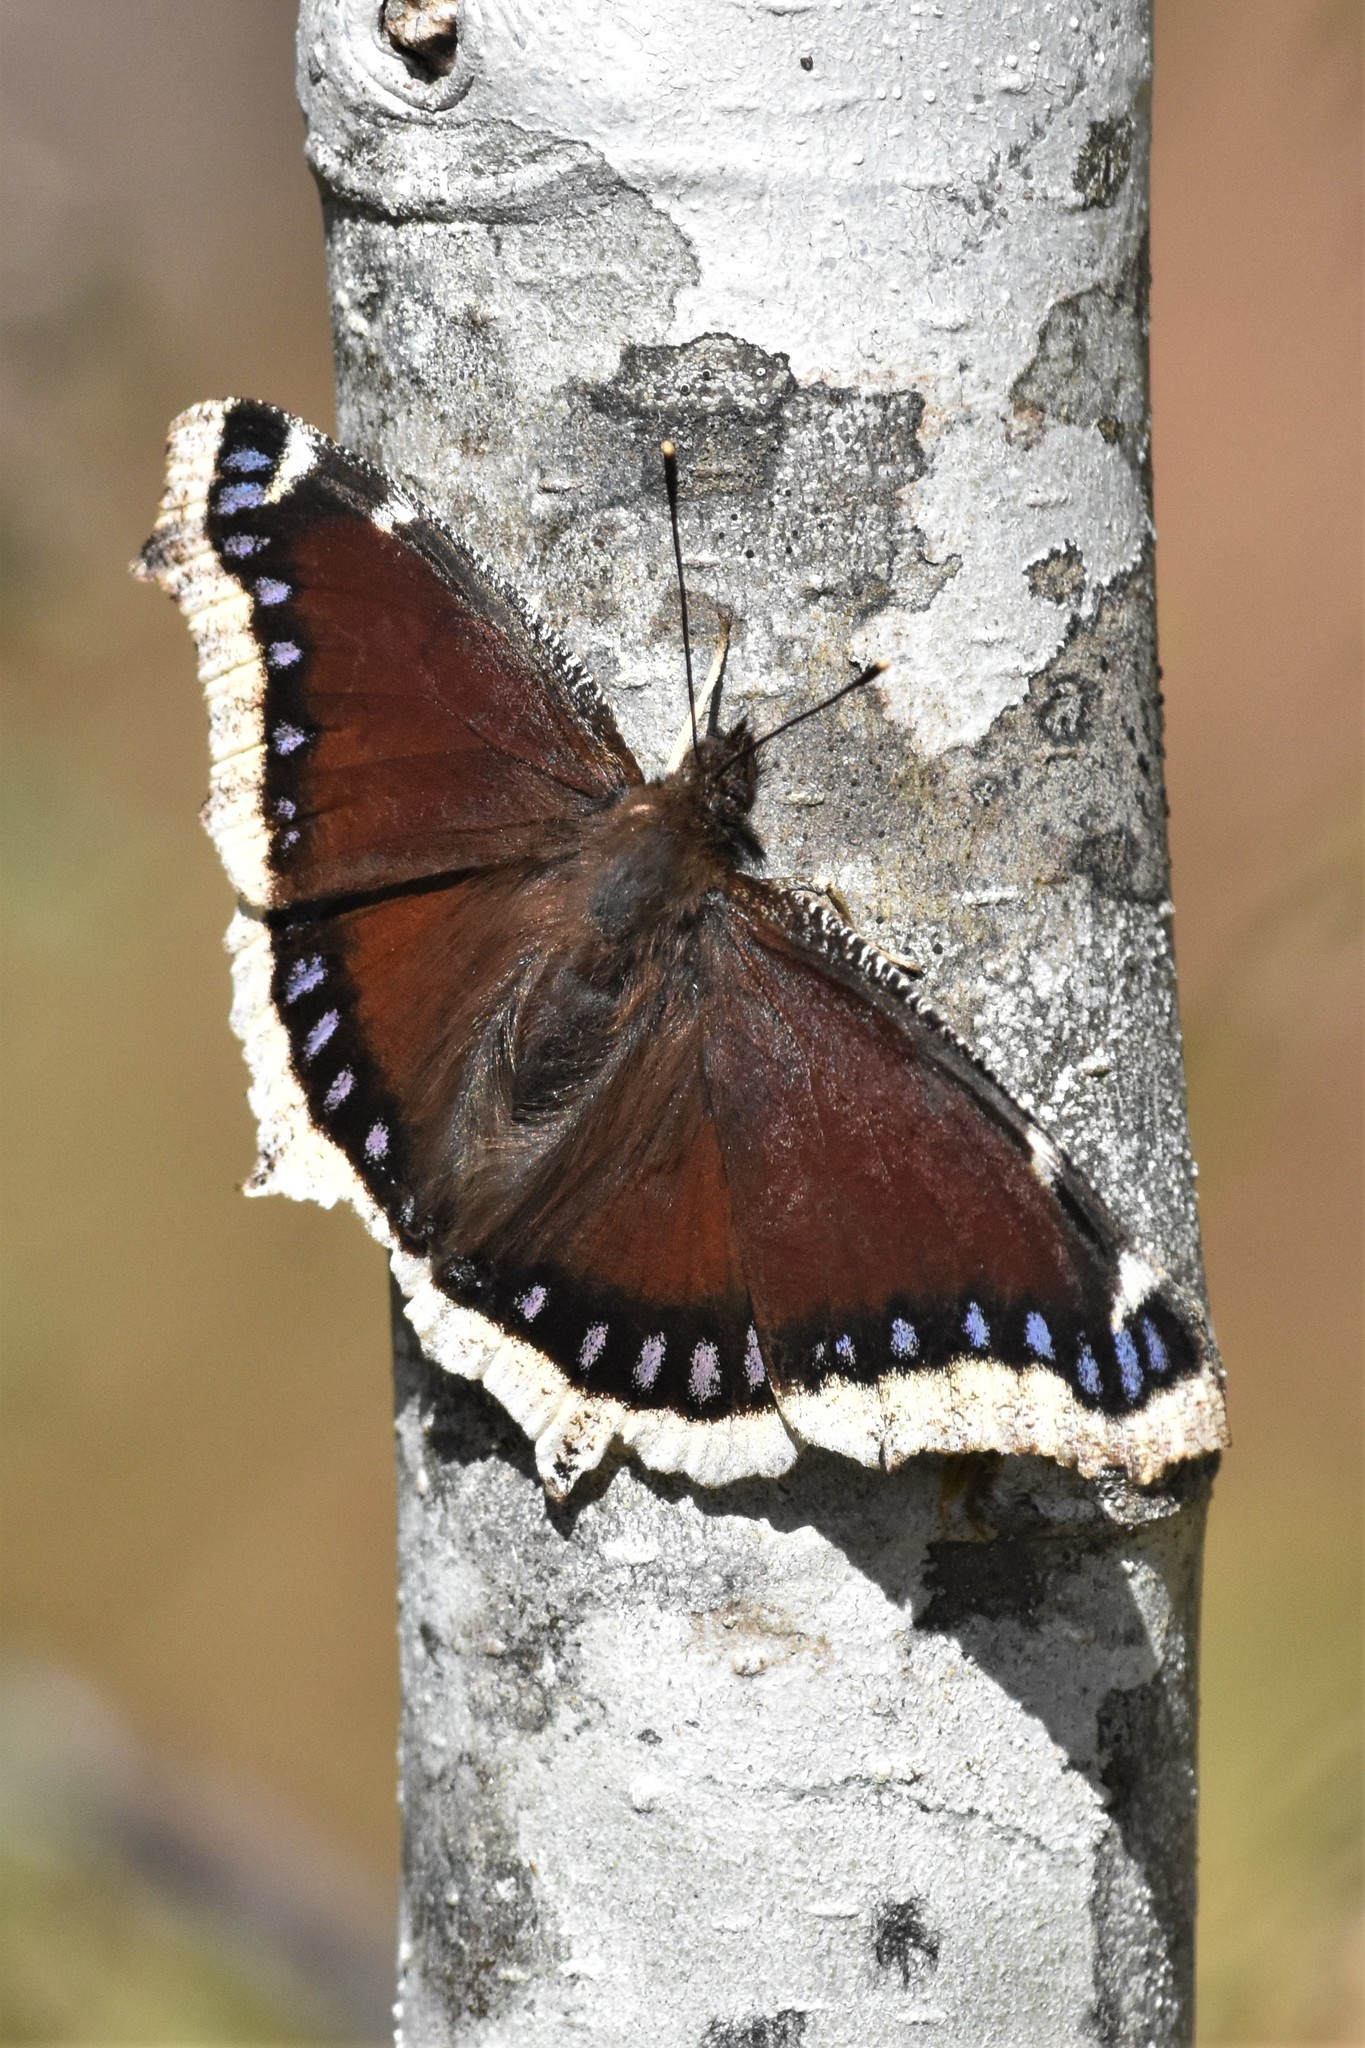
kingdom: Animalia
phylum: Arthropoda
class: Insecta
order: Lepidoptera
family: Nymphalidae
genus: Nymphalis
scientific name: Nymphalis antiopa
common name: Camberwell beauty
